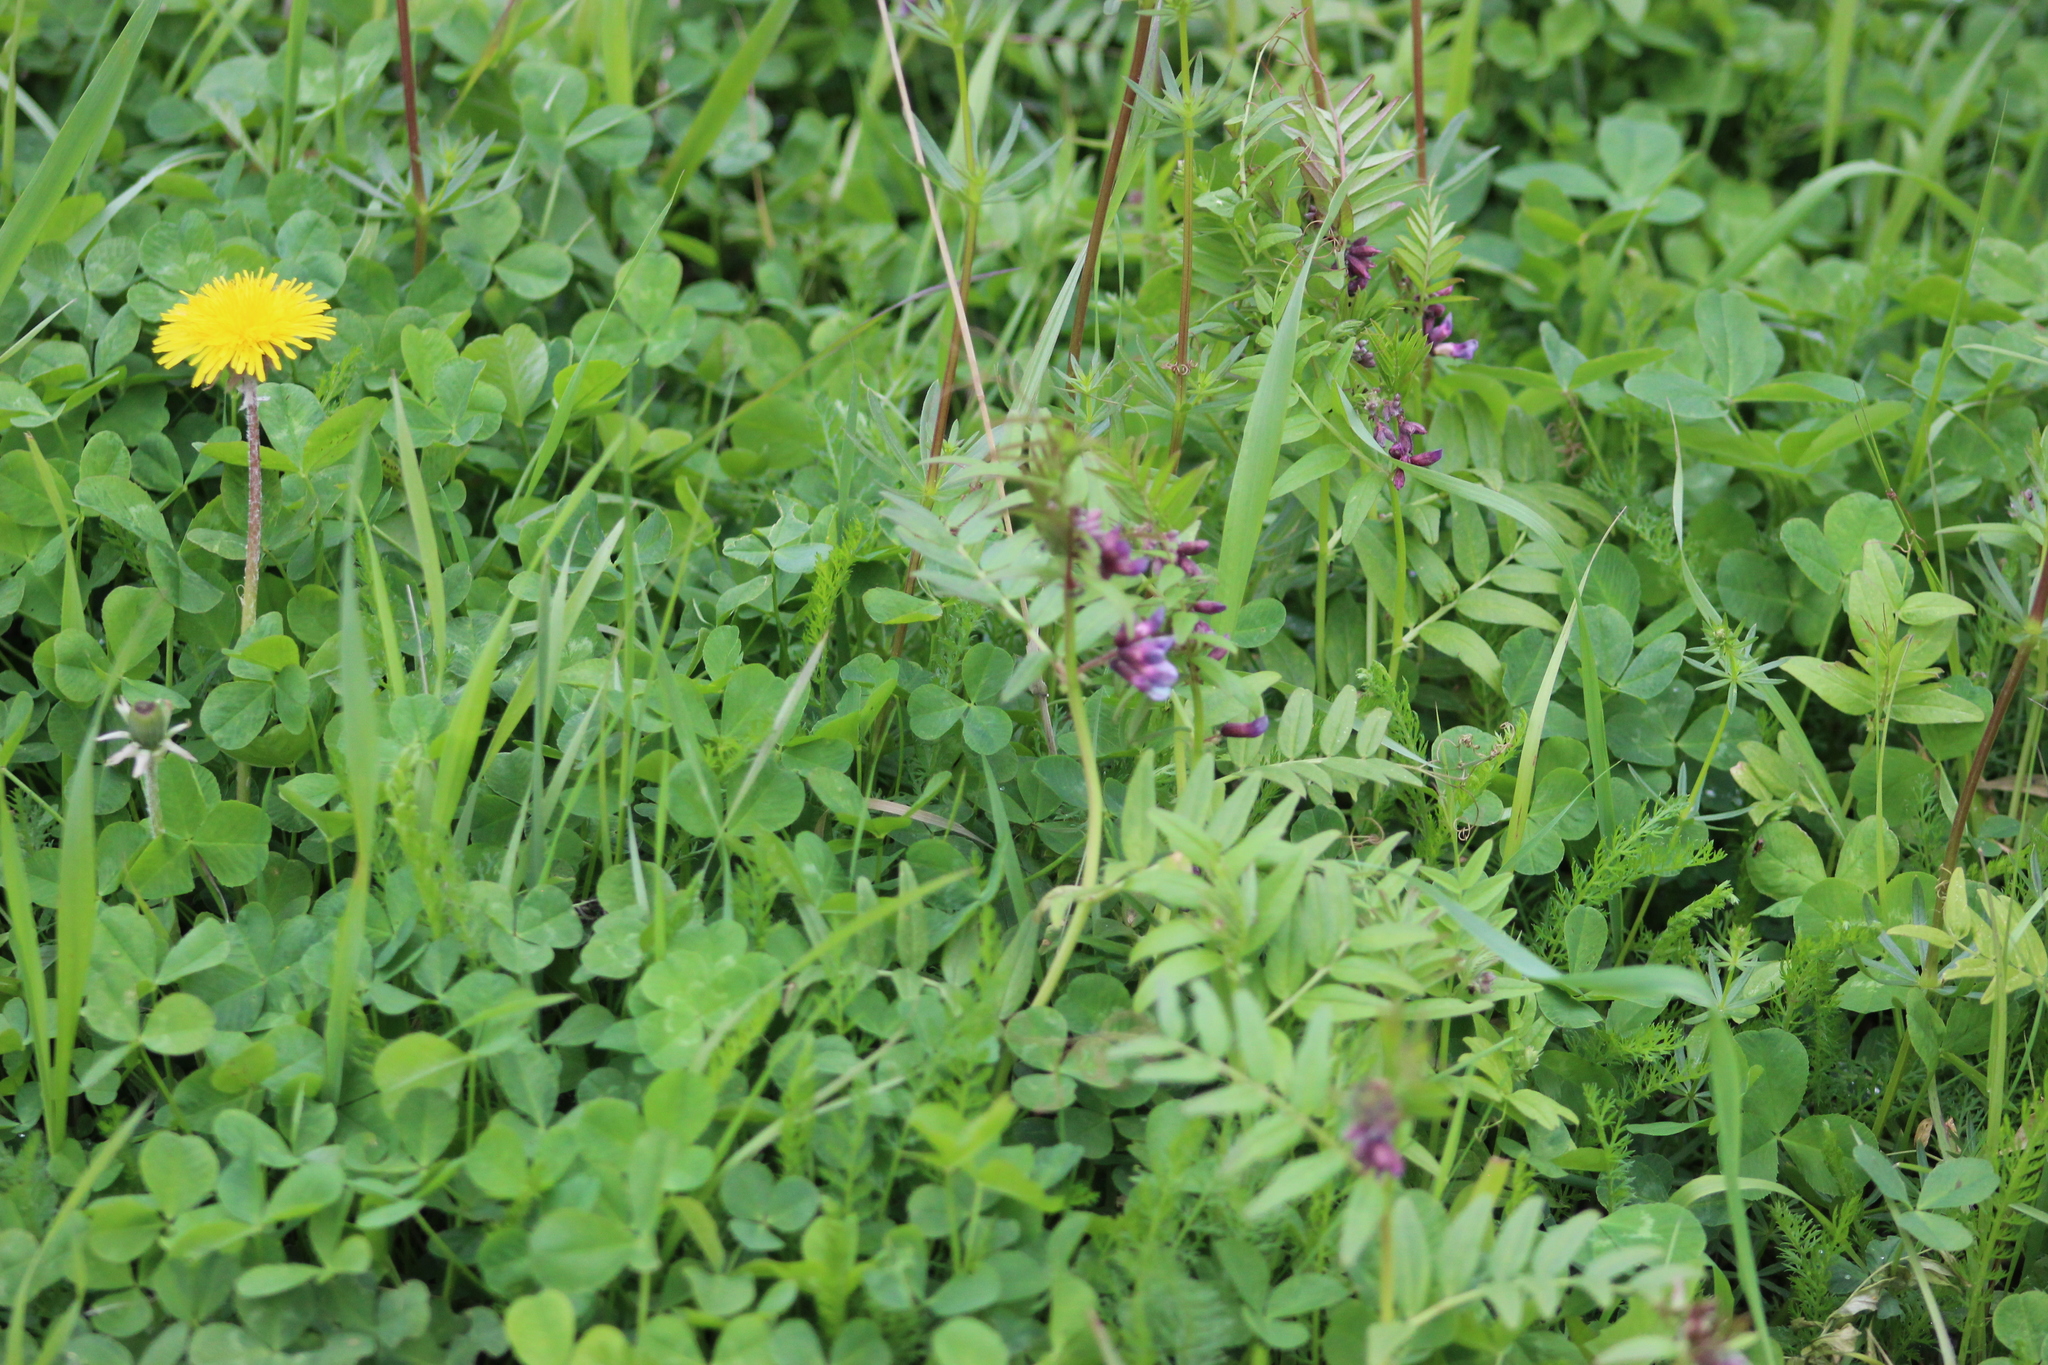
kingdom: Plantae
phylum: Tracheophyta
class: Magnoliopsida
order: Fabales
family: Fabaceae
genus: Vicia
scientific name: Vicia sepium
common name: Bush vetch
